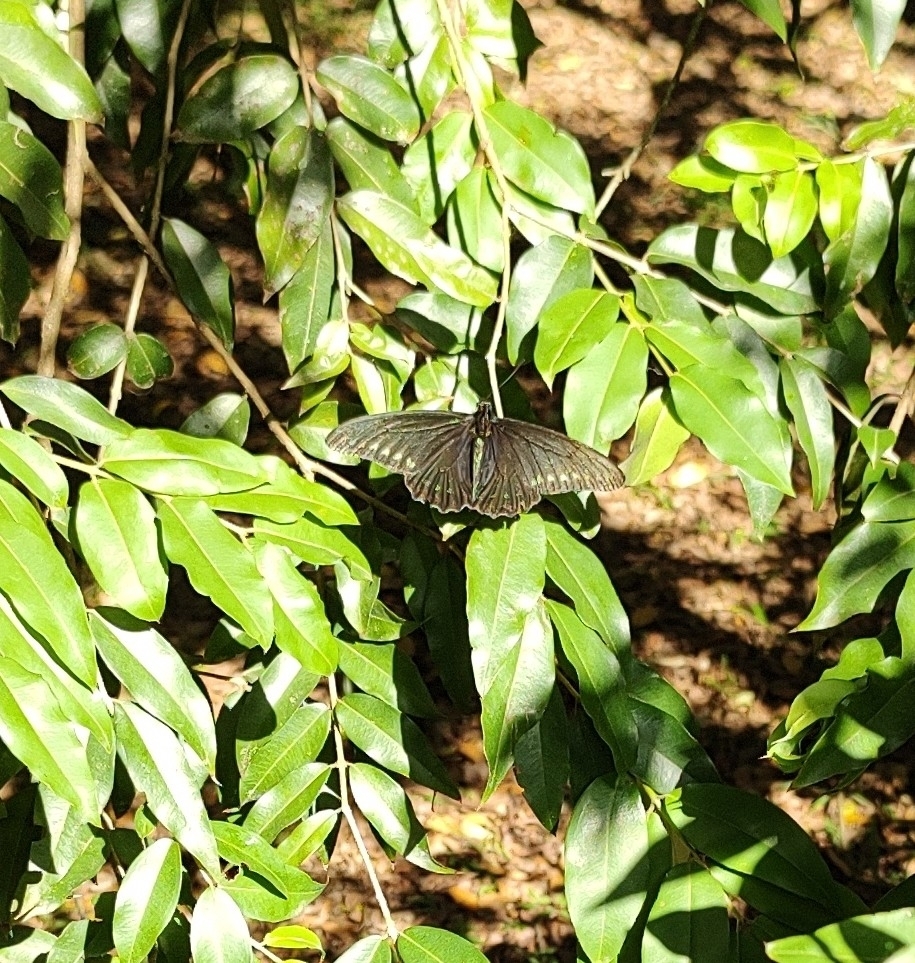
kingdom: Animalia
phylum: Arthropoda
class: Insecta
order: Lepidoptera
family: Papilionidae
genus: Battus
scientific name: Battus polystictus
